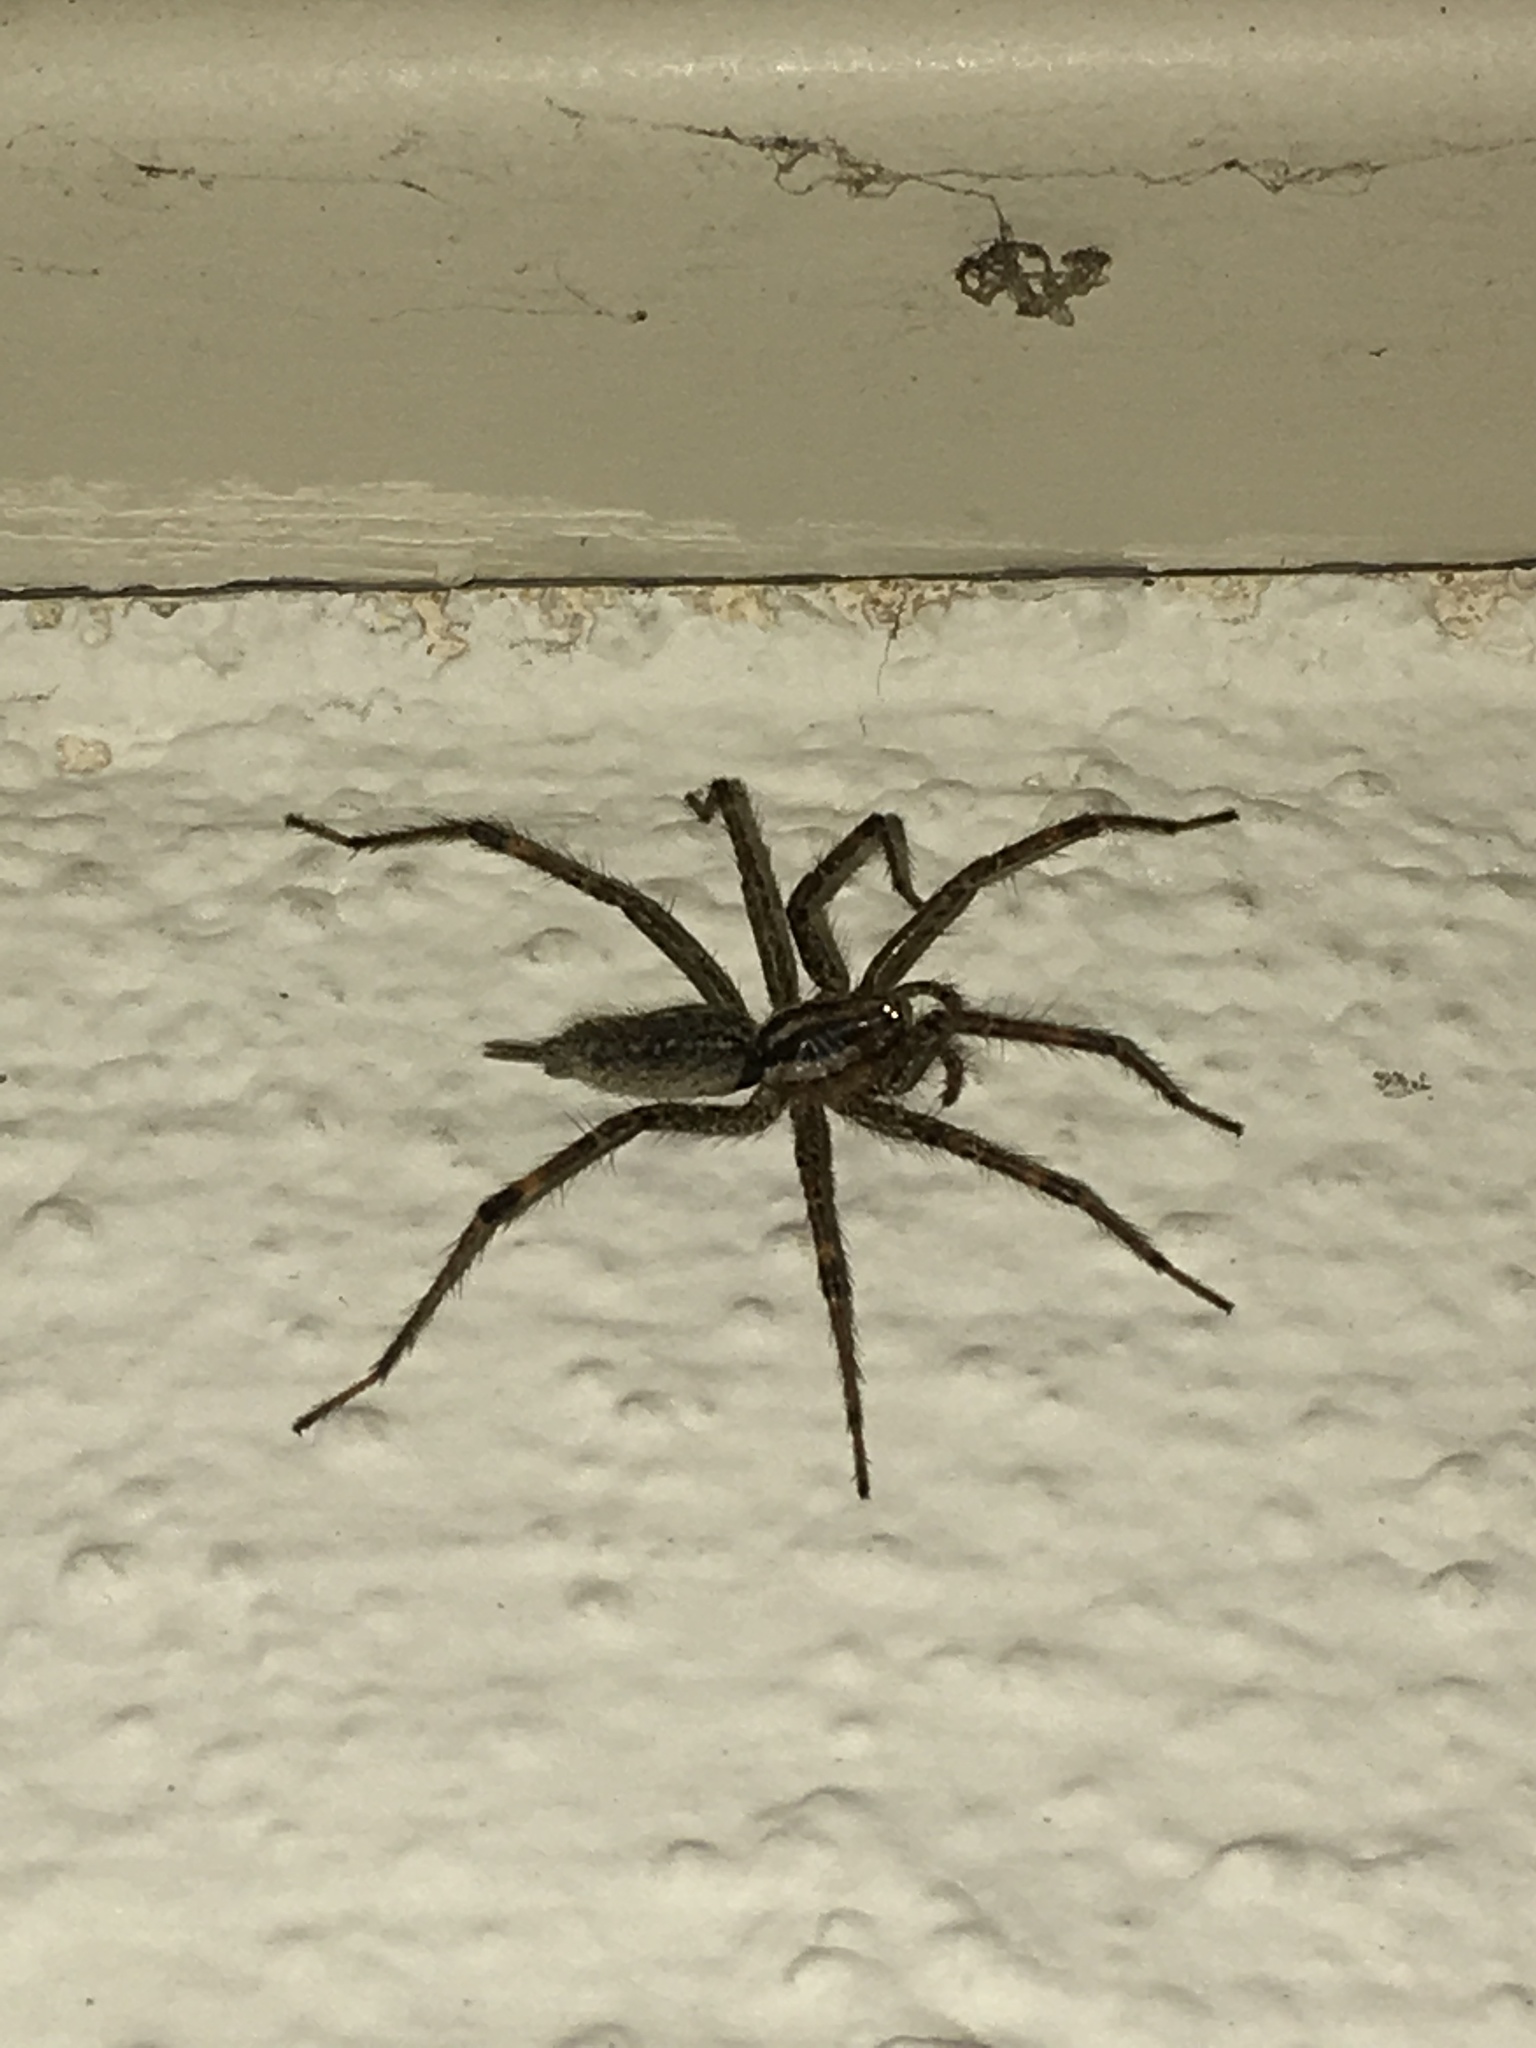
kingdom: Animalia
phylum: Arthropoda
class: Arachnida
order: Araneae
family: Agelenidae
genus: Agelenopsis
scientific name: Agelenopsis
